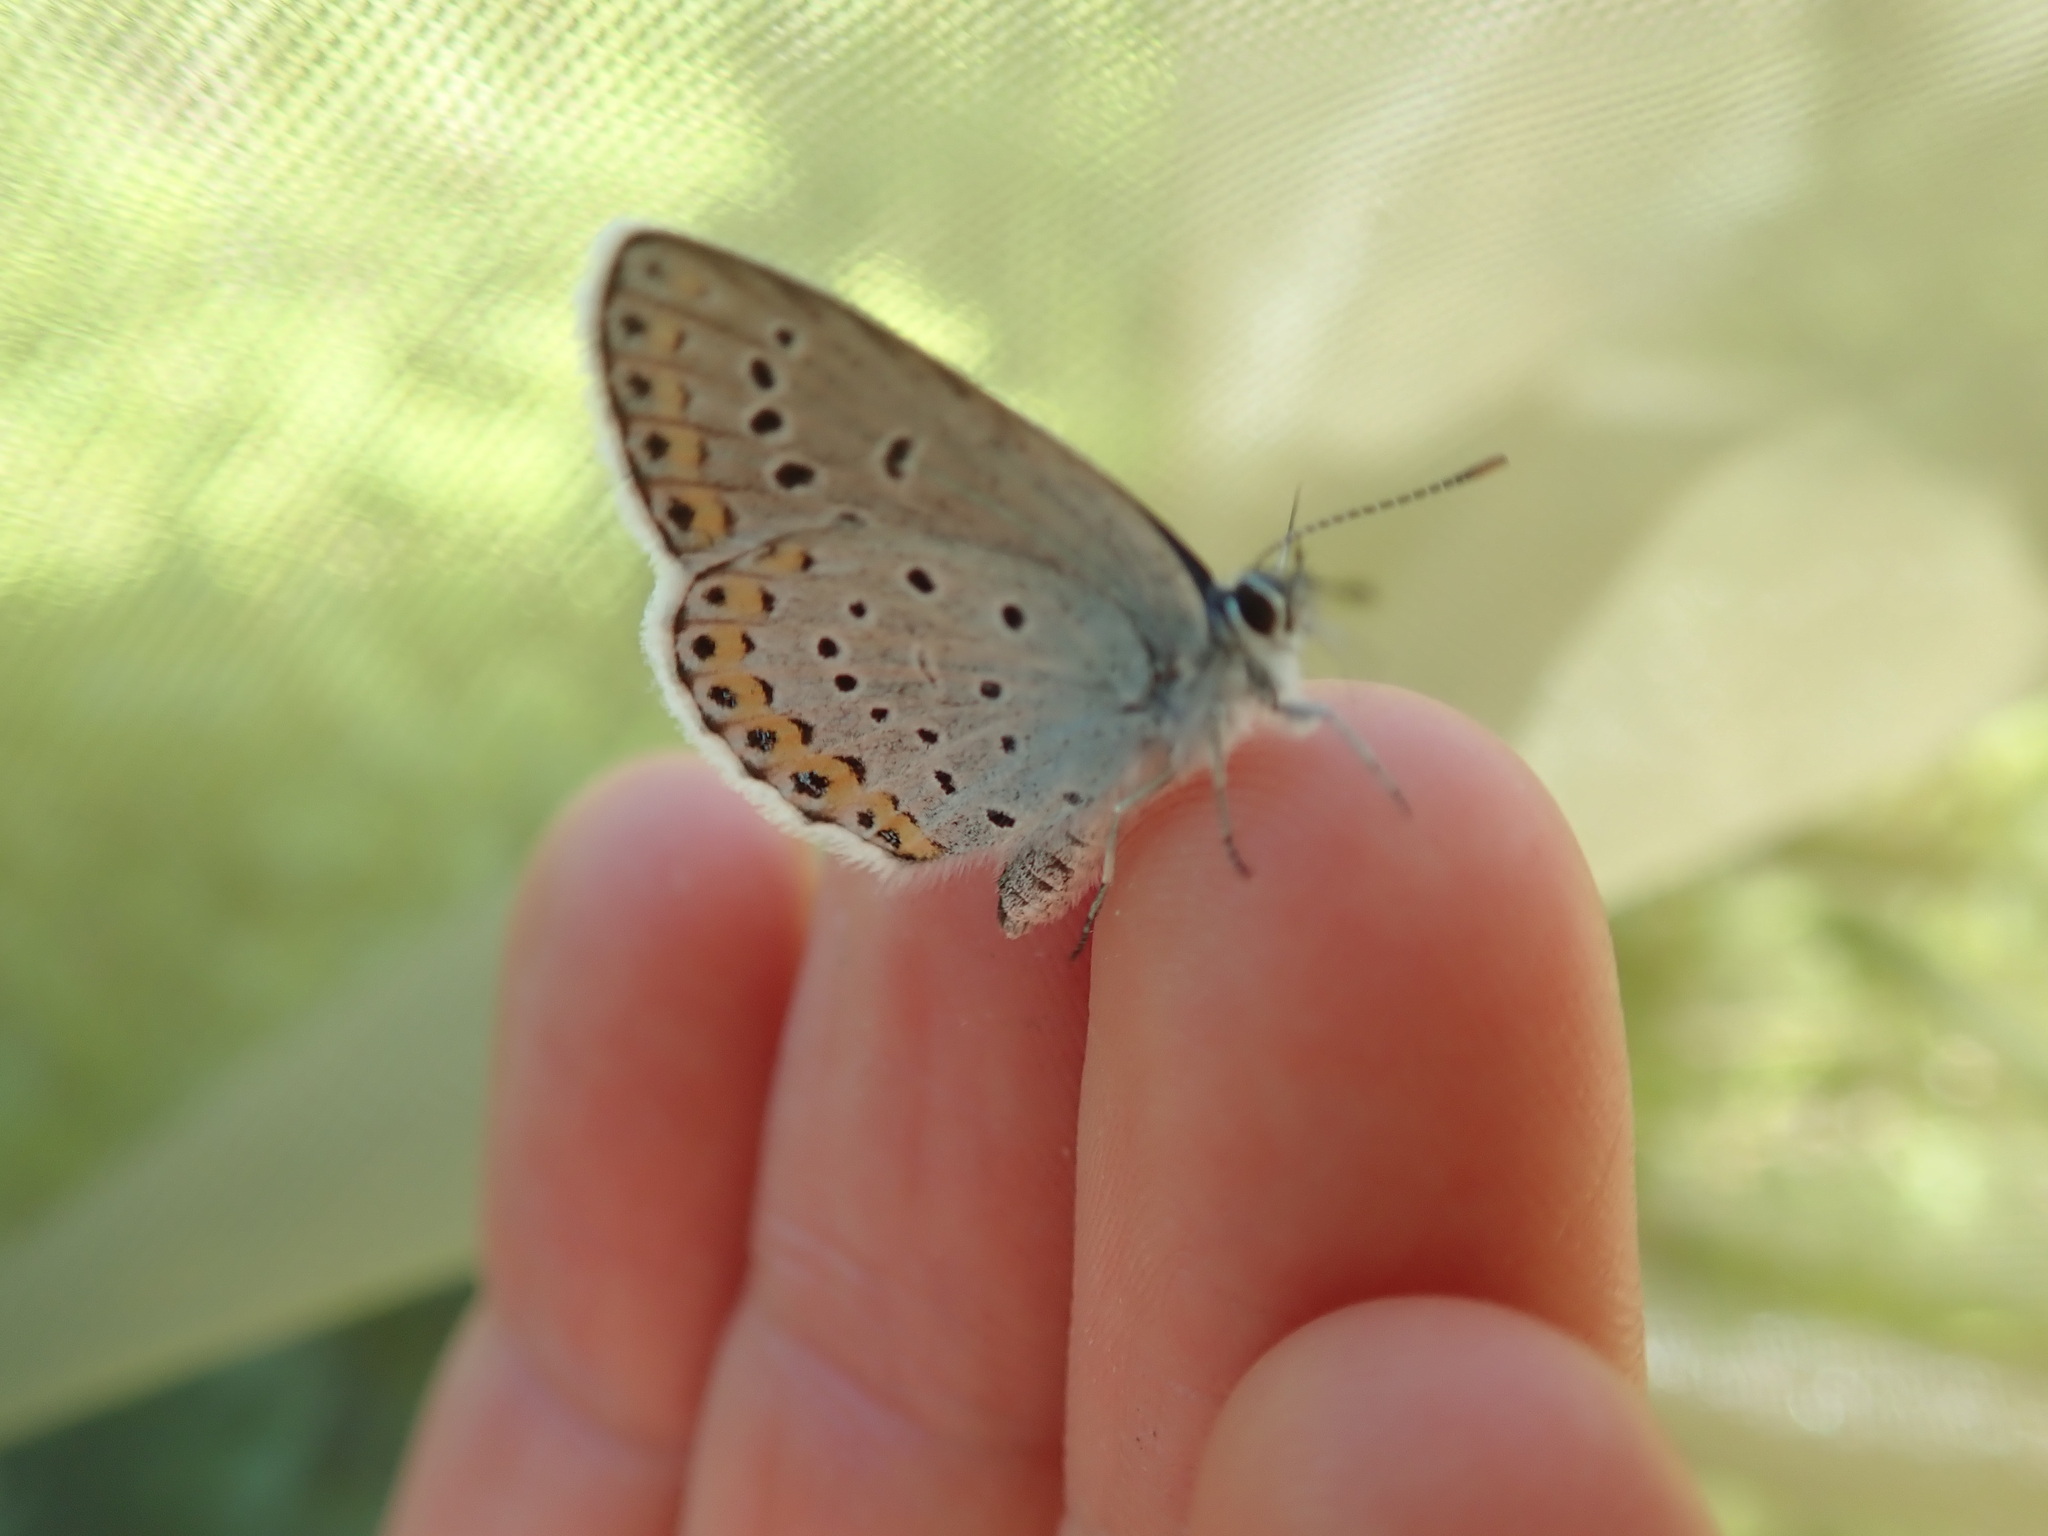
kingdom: Animalia
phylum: Arthropoda
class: Insecta
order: Lepidoptera
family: Lycaenidae
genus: Plebejus
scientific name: Plebejus argyrognomon
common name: Reverdin's blue
